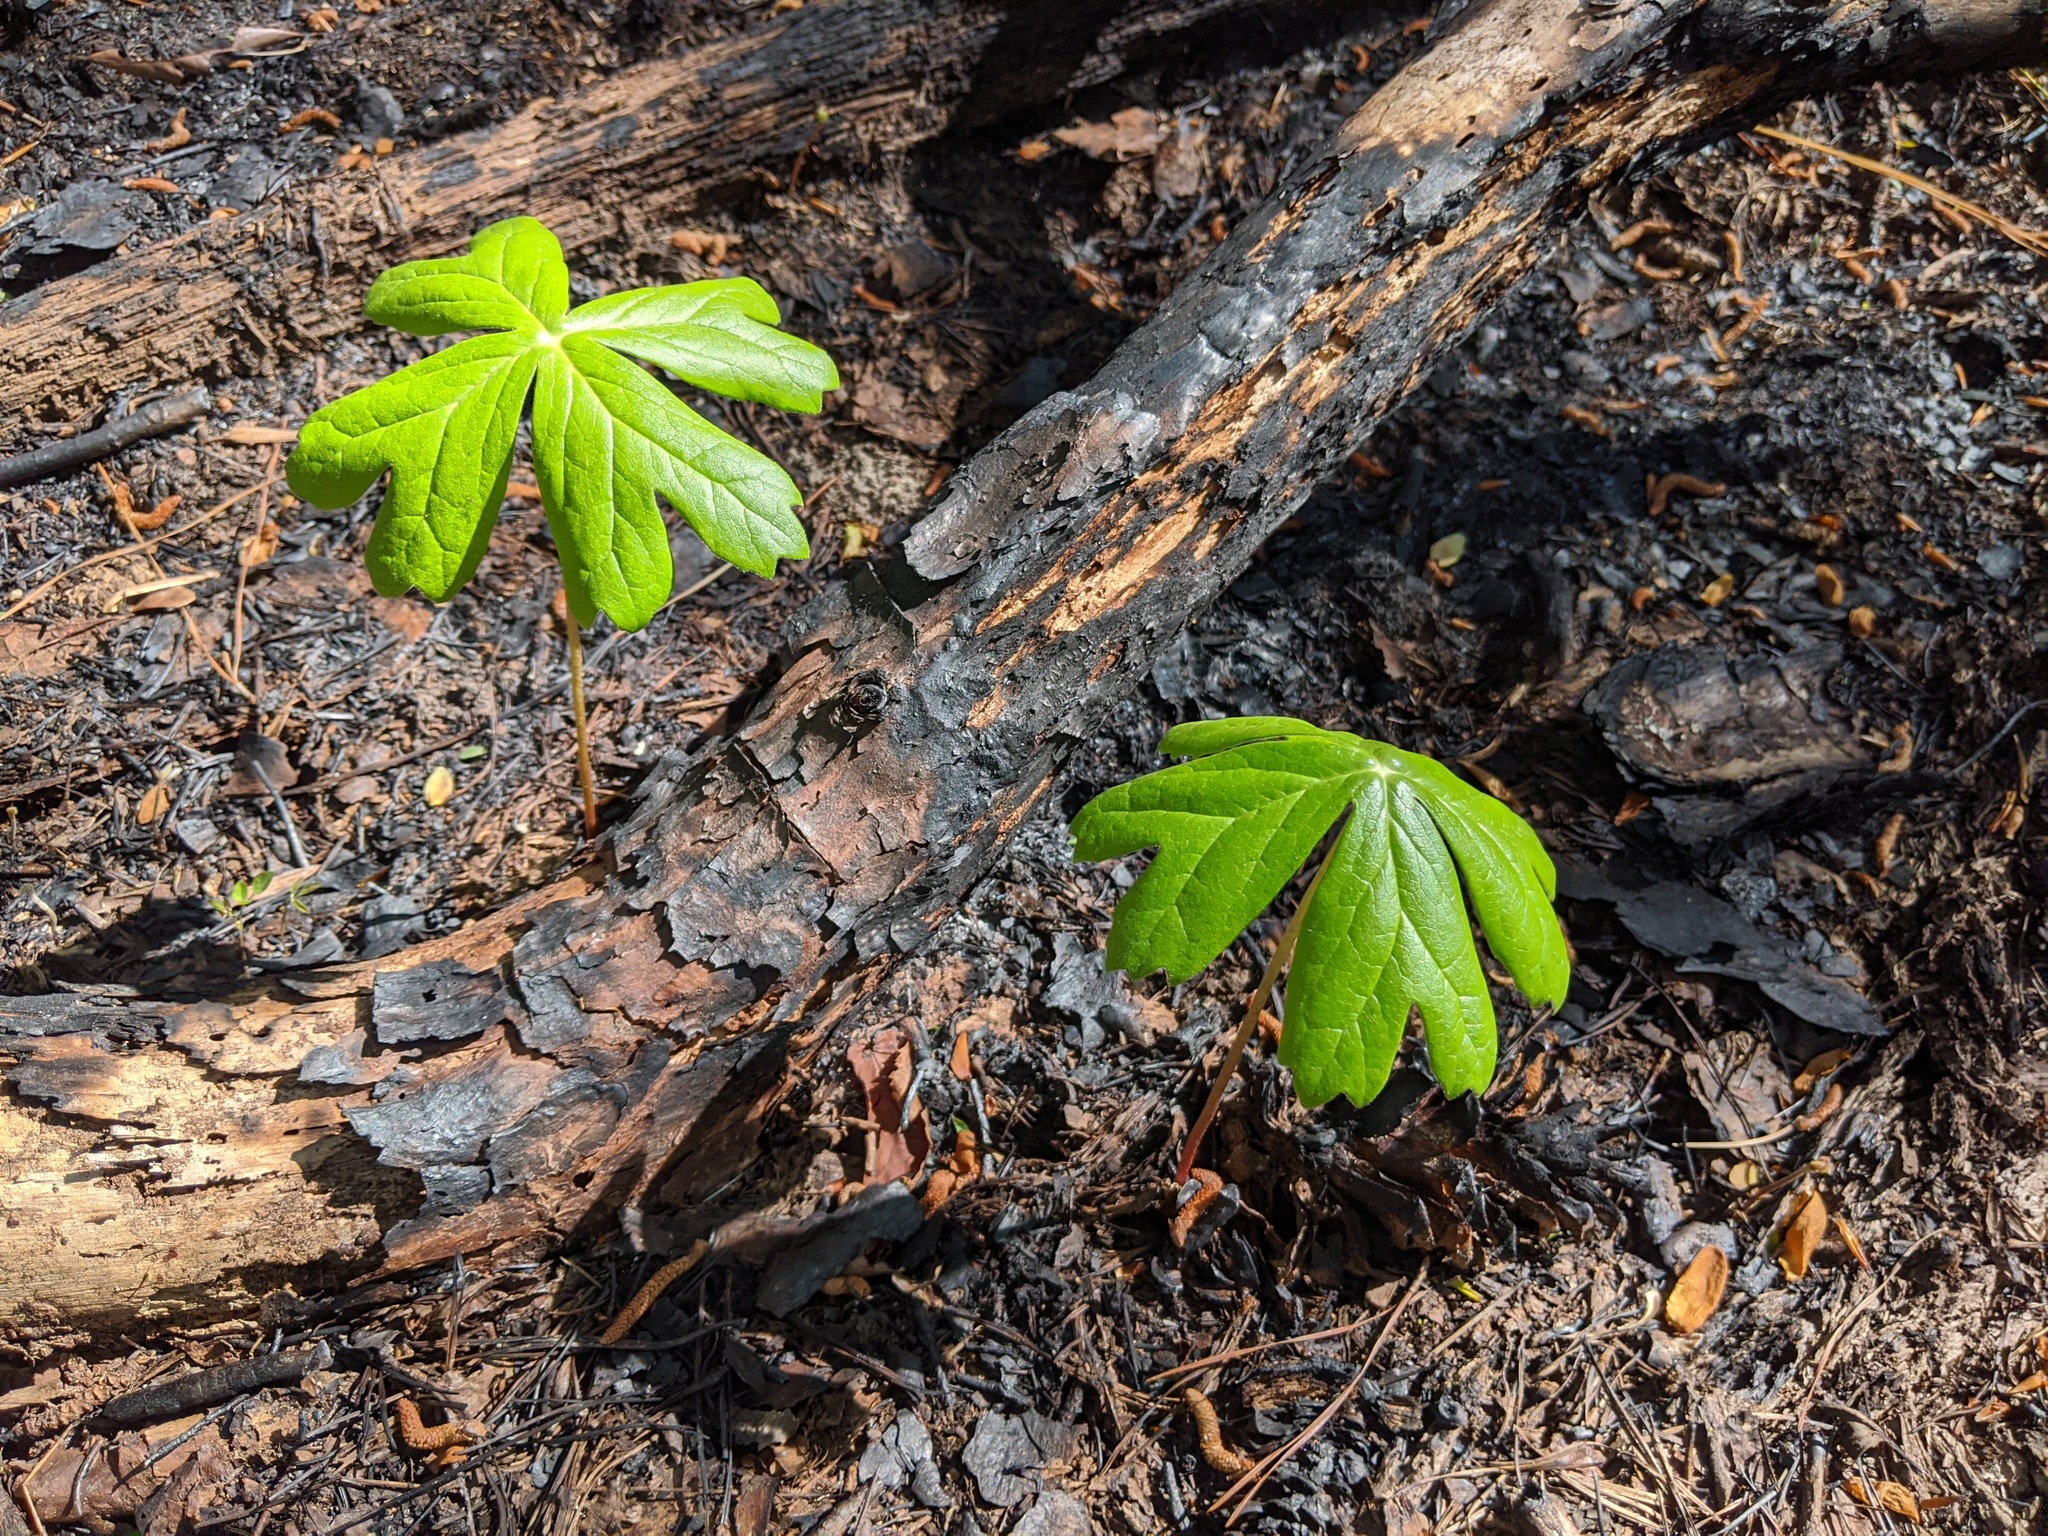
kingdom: Plantae
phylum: Tracheophyta
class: Magnoliopsida
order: Ranunculales
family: Berberidaceae
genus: Podophyllum
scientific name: Podophyllum peltatum
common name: Wild mandrake
